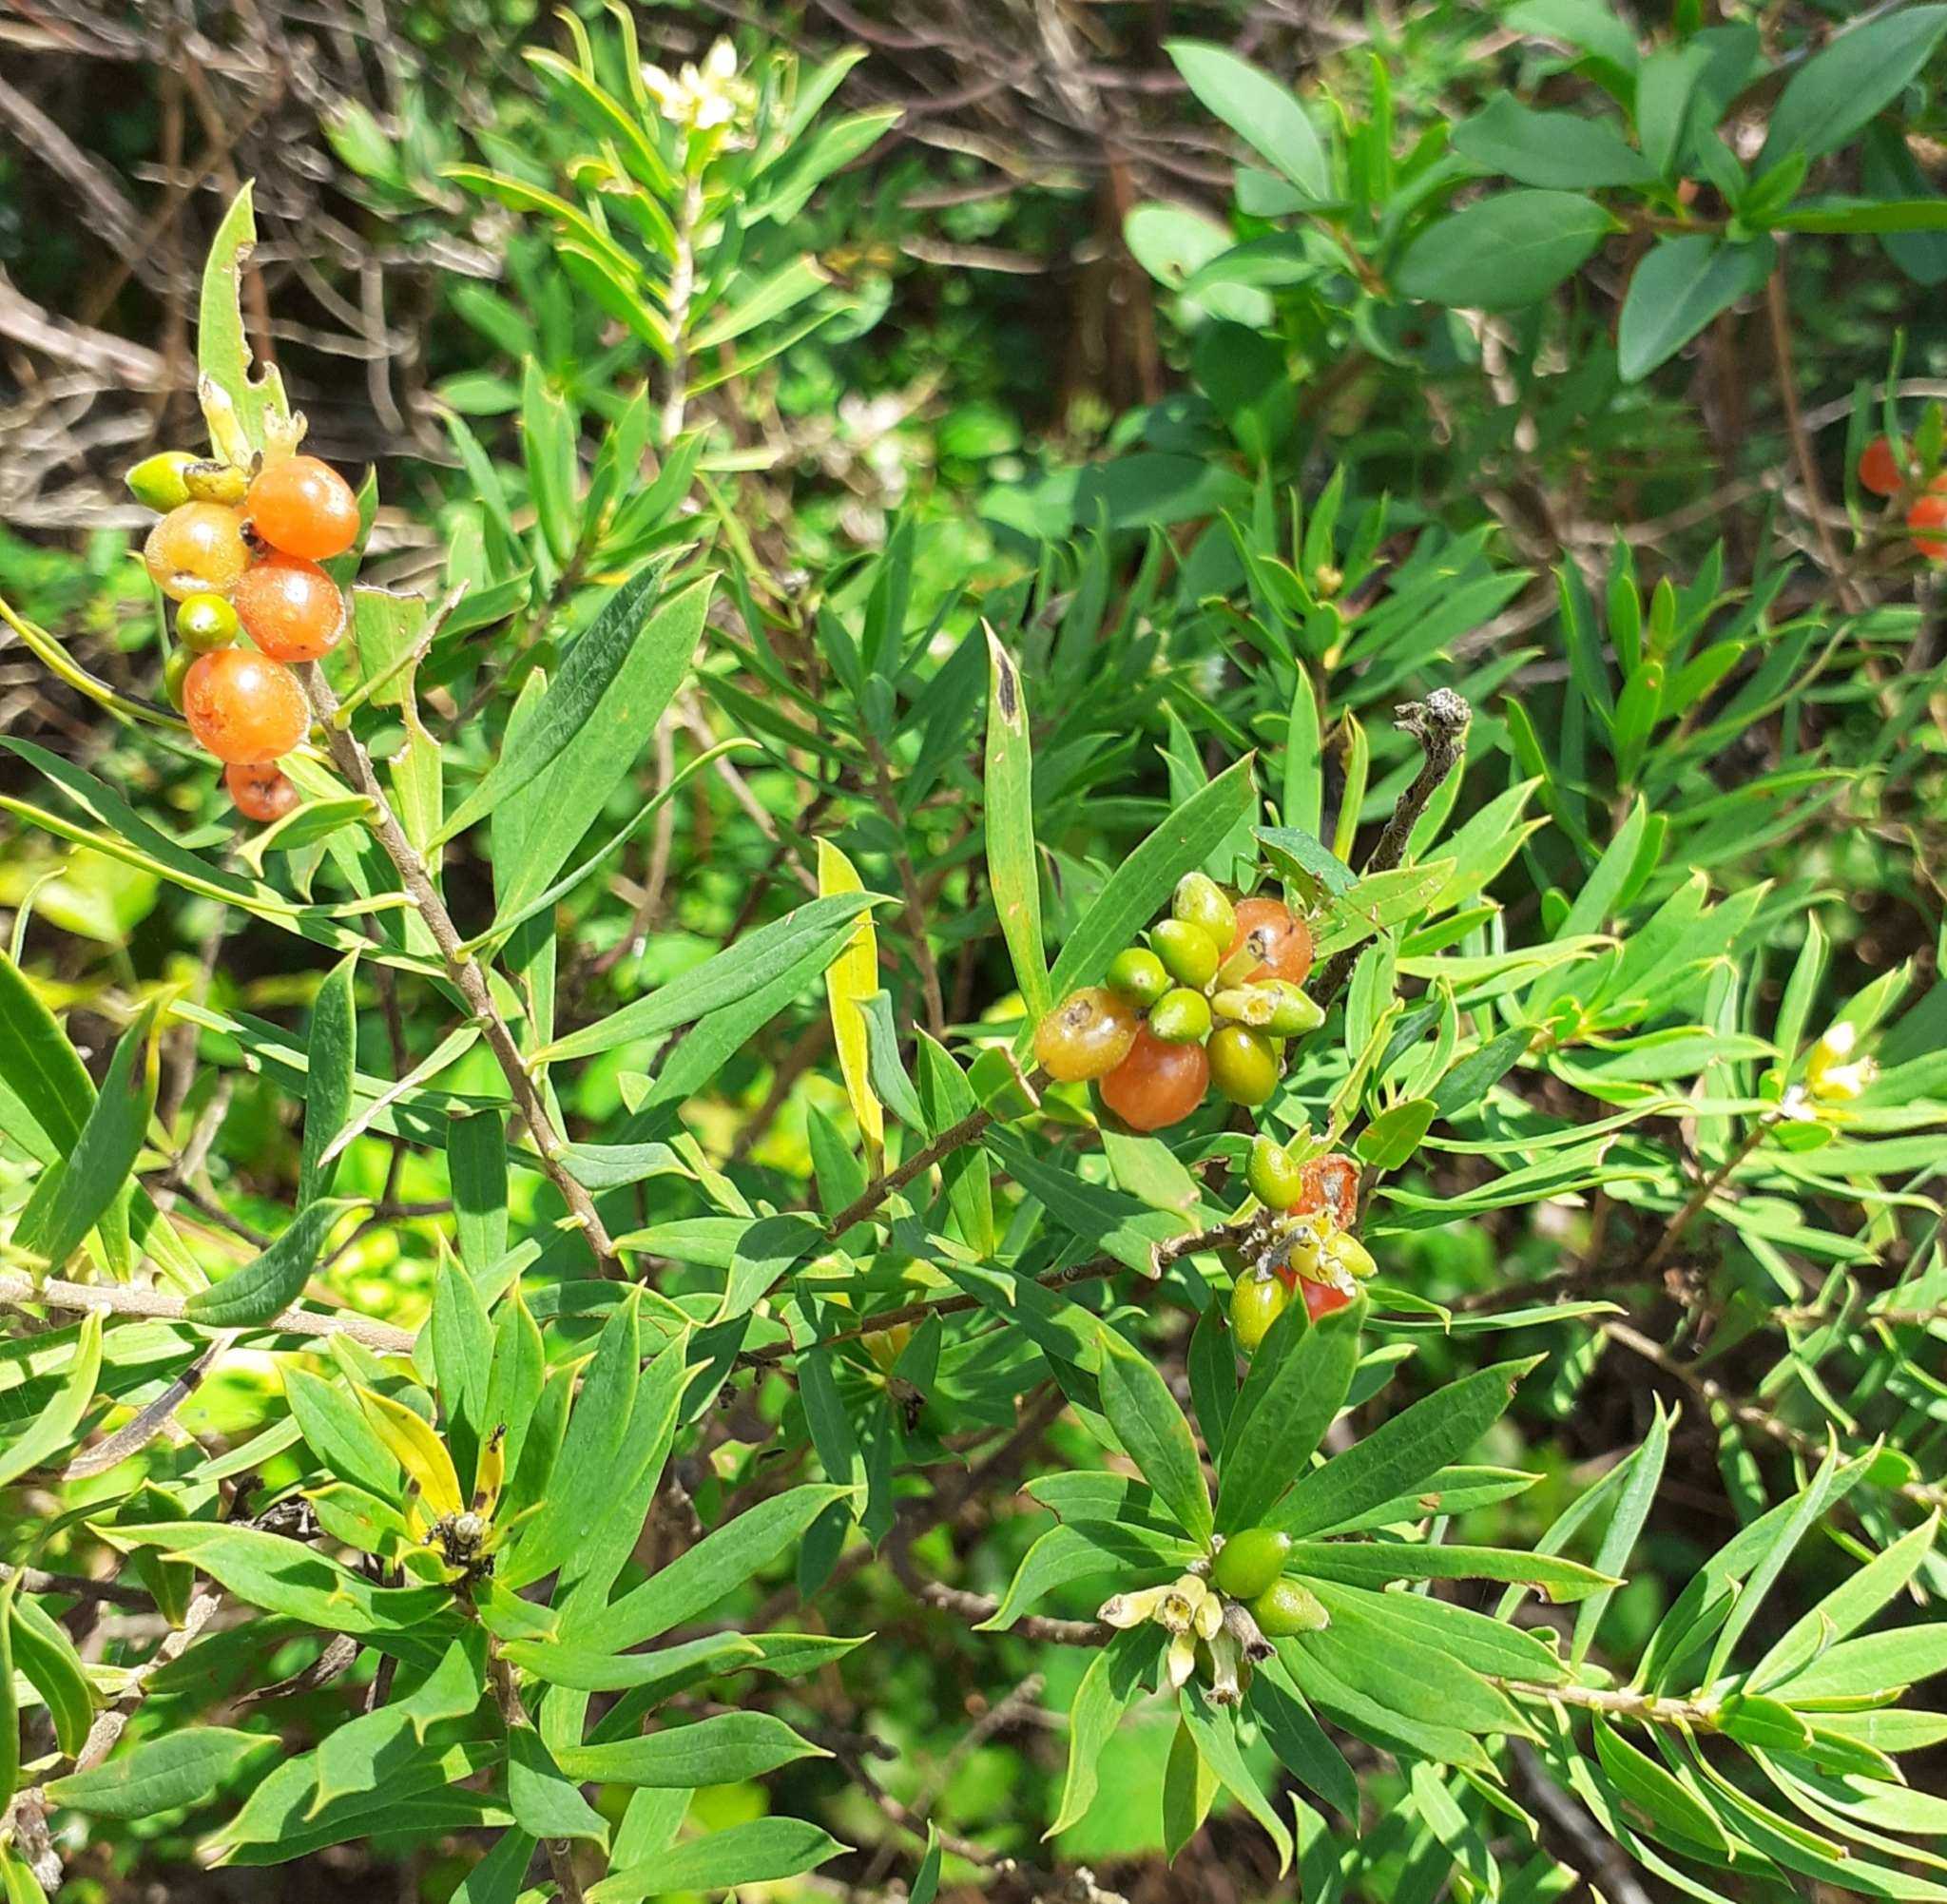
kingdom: Plantae
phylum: Tracheophyta
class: Magnoliopsida
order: Malvales
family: Thymelaeaceae
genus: Daphne
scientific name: Daphne gnidium
